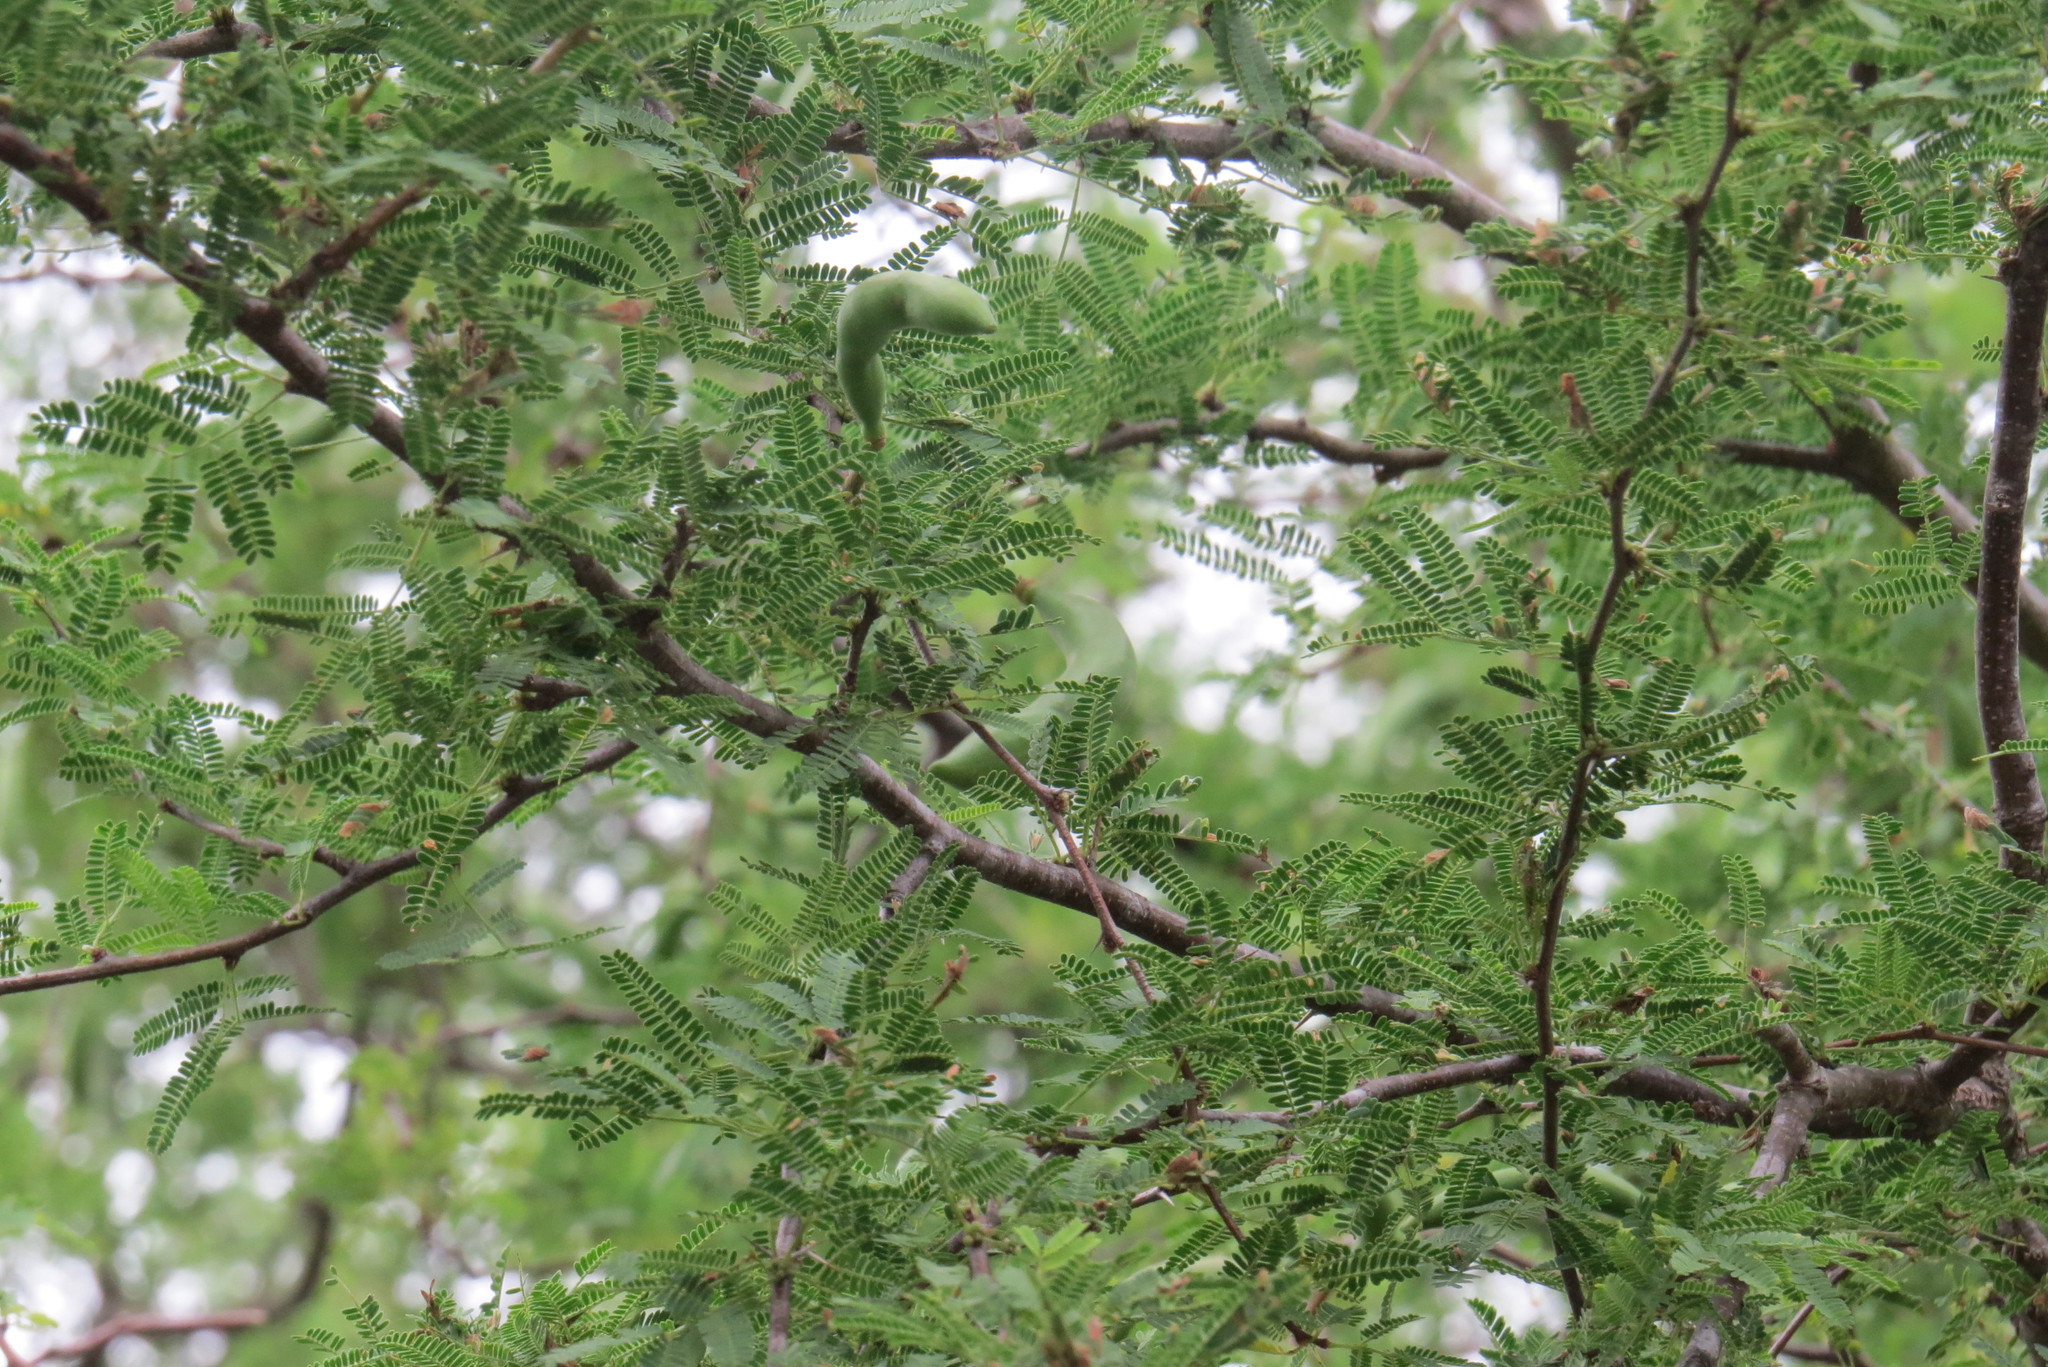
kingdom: Plantae
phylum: Tracheophyta
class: Magnoliopsida
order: Fabales
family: Fabaceae
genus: Vachellia
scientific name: Vachellia farnesiana
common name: Sweet acacia
